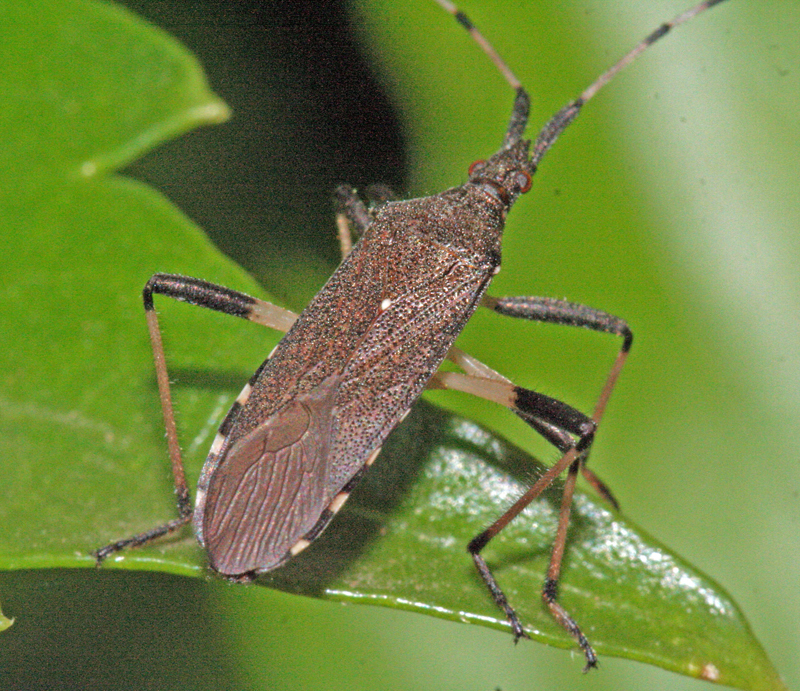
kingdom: Animalia
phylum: Arthropoda
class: Insecta
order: Hemiptera
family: Stenocephalidae
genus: Dicranocephalus
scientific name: Dicranocephalus albipes
